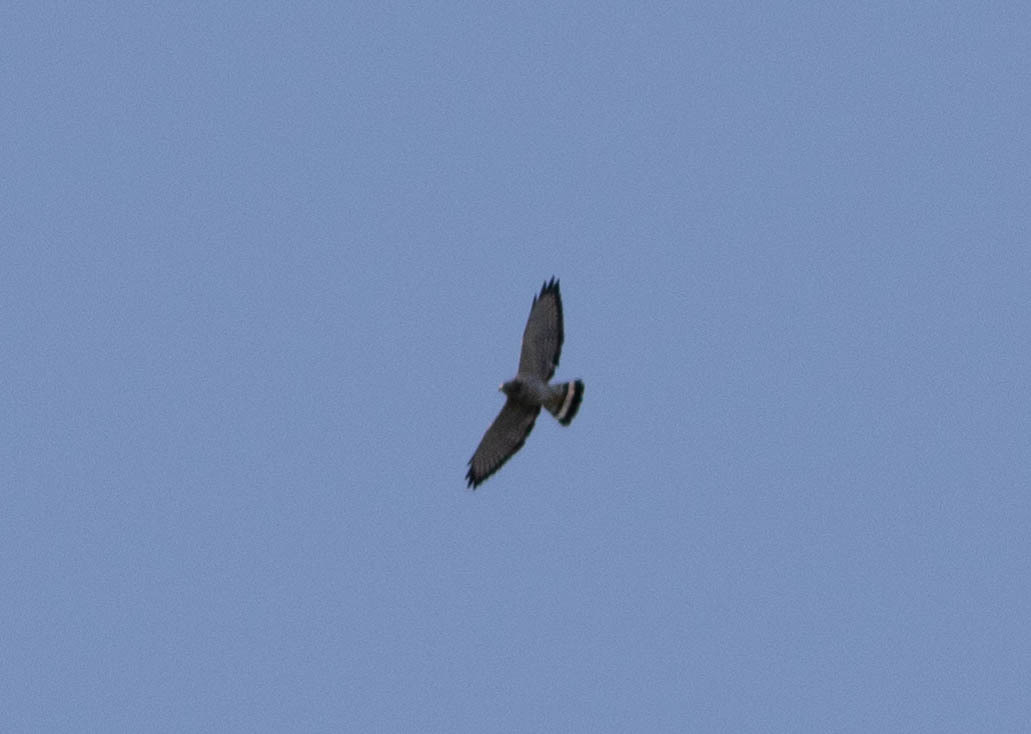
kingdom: Animalia
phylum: Chordata
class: Aves
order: Accipitriformes
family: Accipitridae
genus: Buteo
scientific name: Buteo platypterus
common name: Broad-winged hawk
